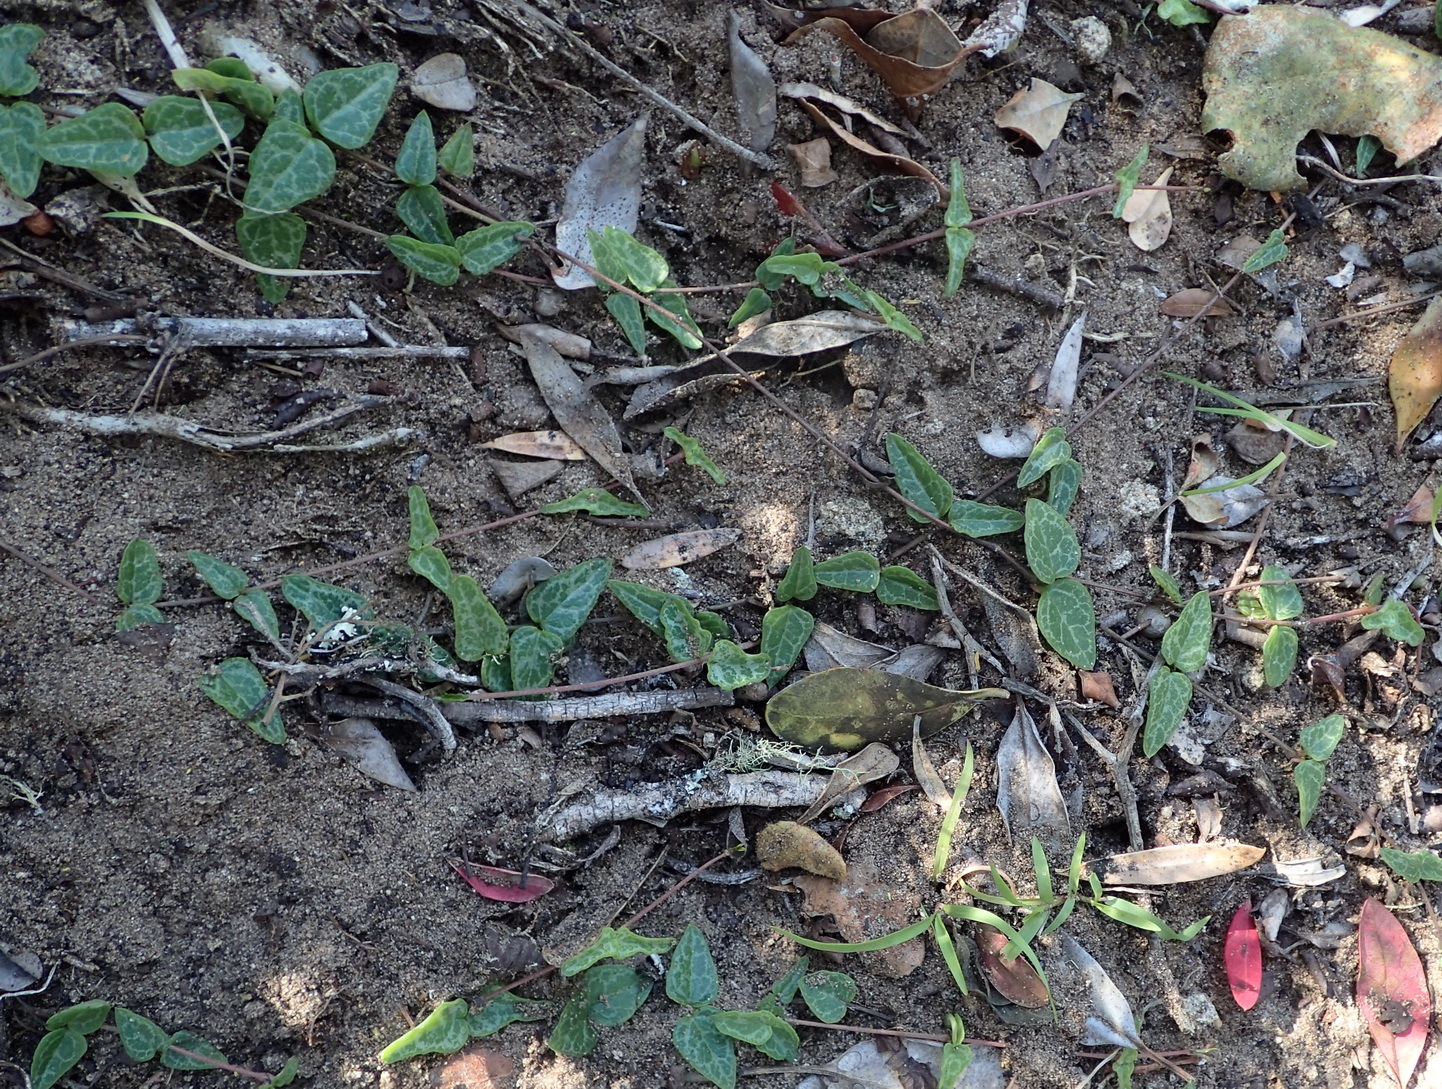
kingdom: Plantae
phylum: Tracheophyta
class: Magnoliopsida
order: Gentianales
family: Apocynaceae
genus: Ceropegia
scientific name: Ceropegia woodii
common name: Hearts entangled
